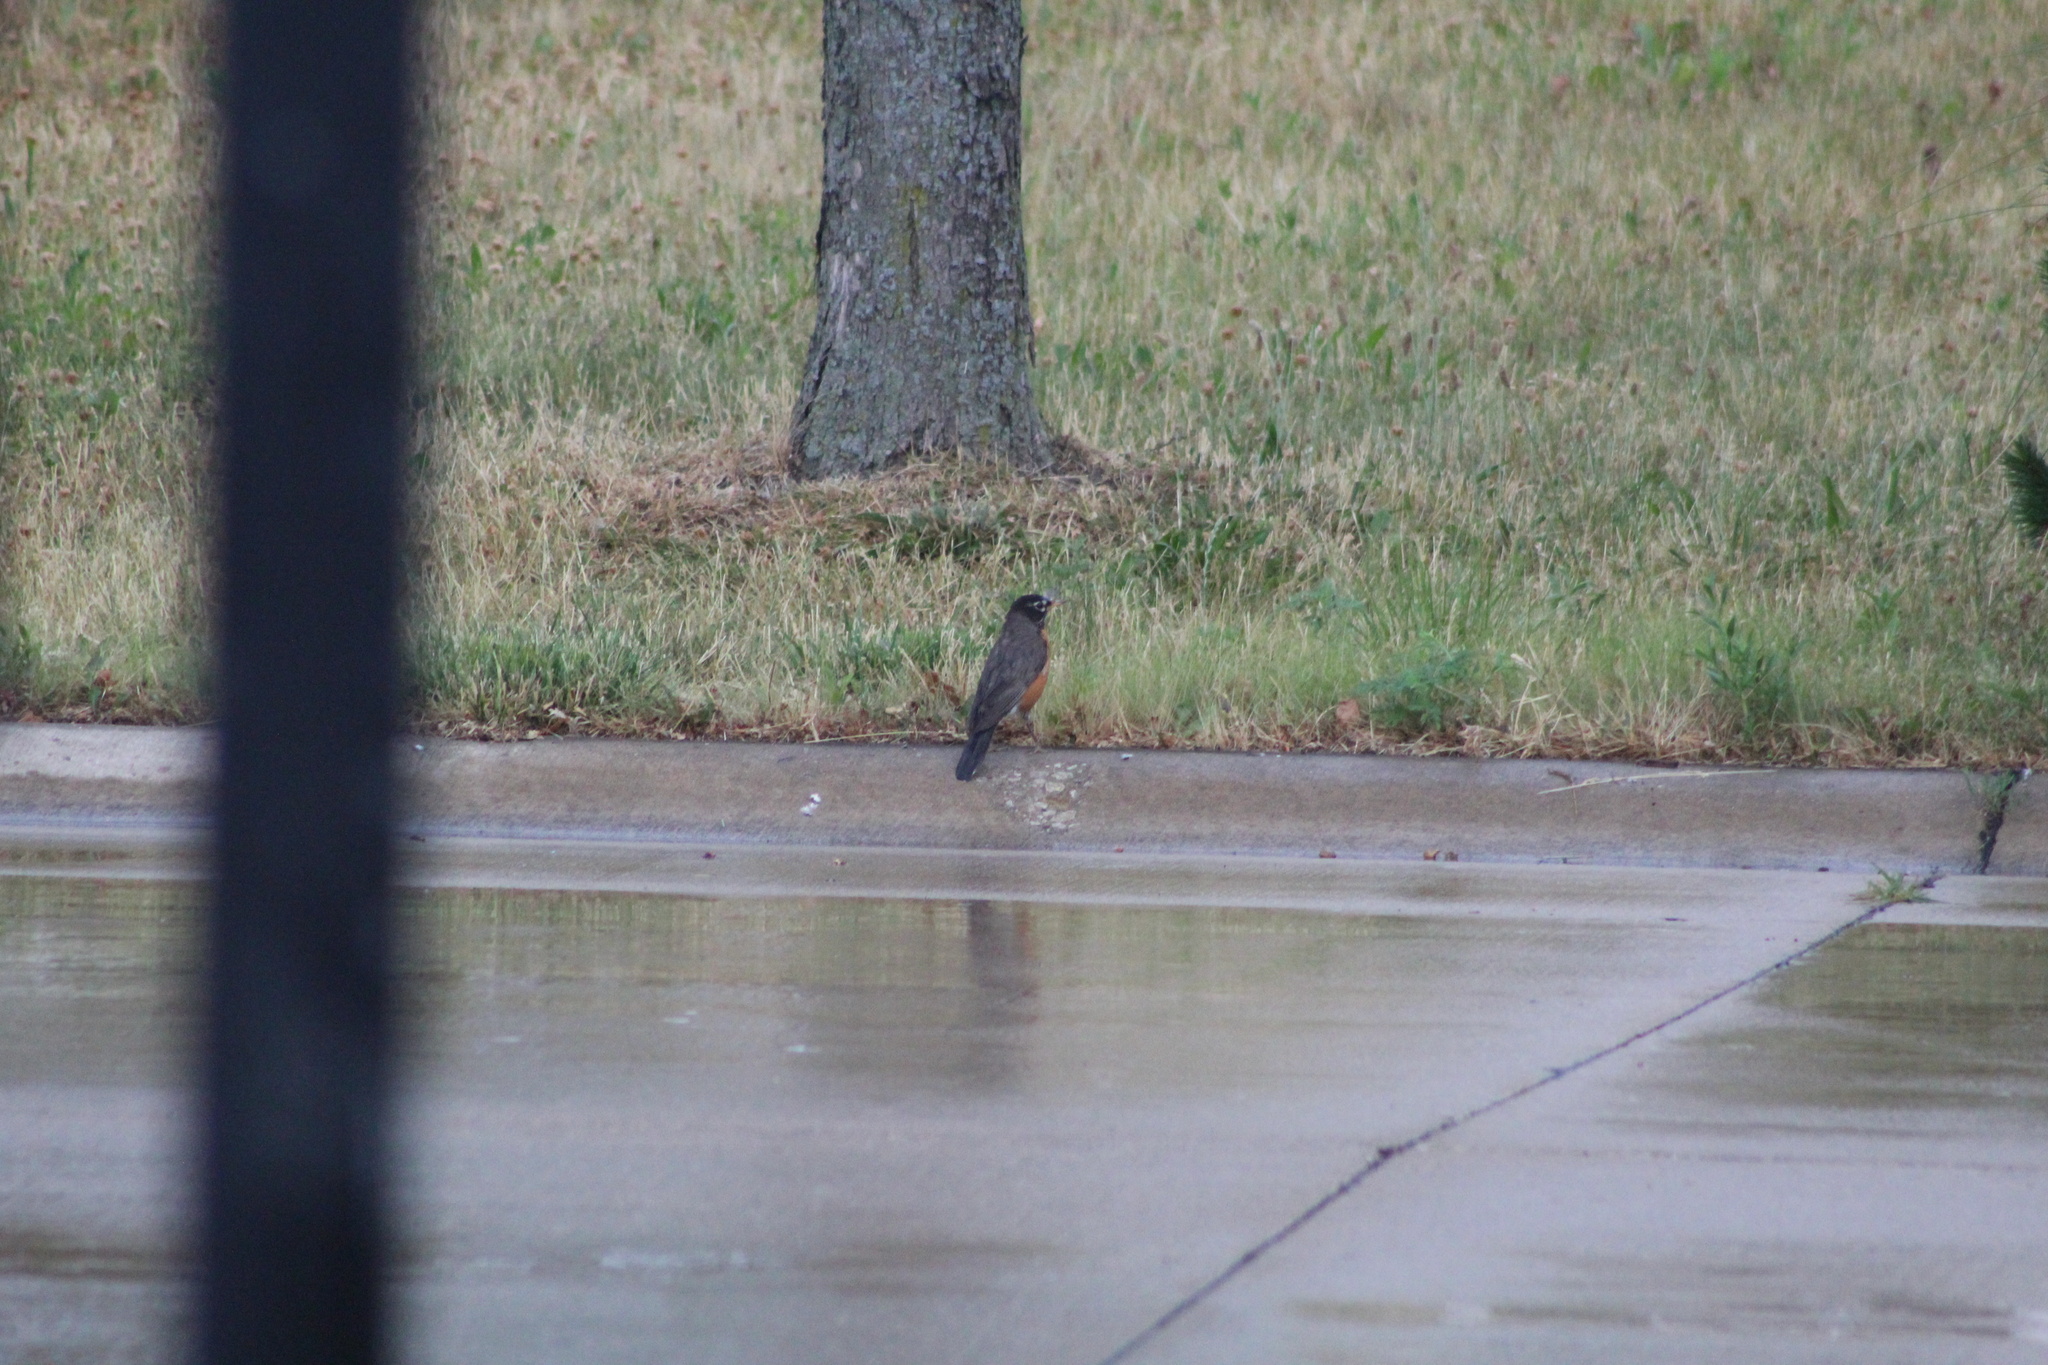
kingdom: Animalia
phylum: Chordata
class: Aves
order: Passeriformes
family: Turdidae
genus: Turdus
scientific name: Turdus migratorius
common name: American robin
